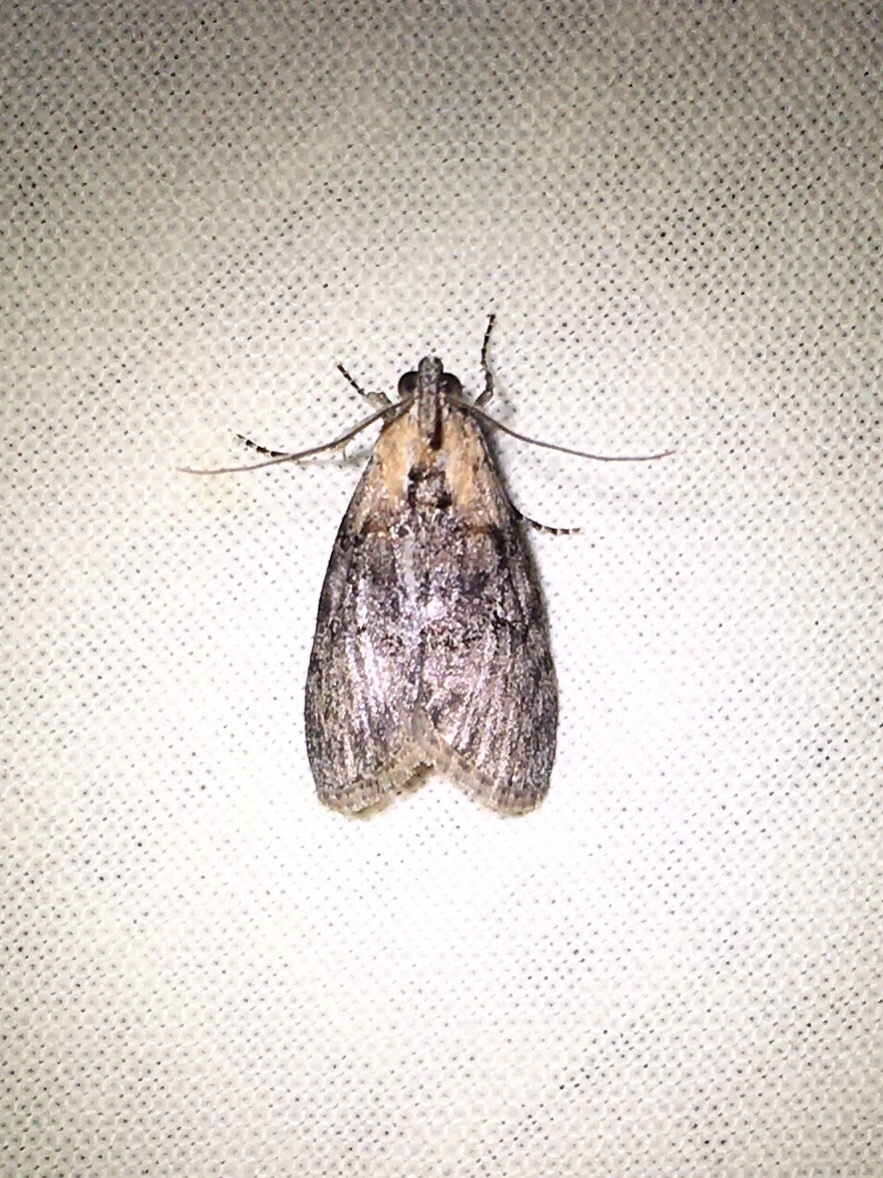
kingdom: Animalia
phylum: Arthropoda
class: Insecta
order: Lepidoptera
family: Pyralidae
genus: Pococera
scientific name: Pococera expandens
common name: Striped oak webworm moth
